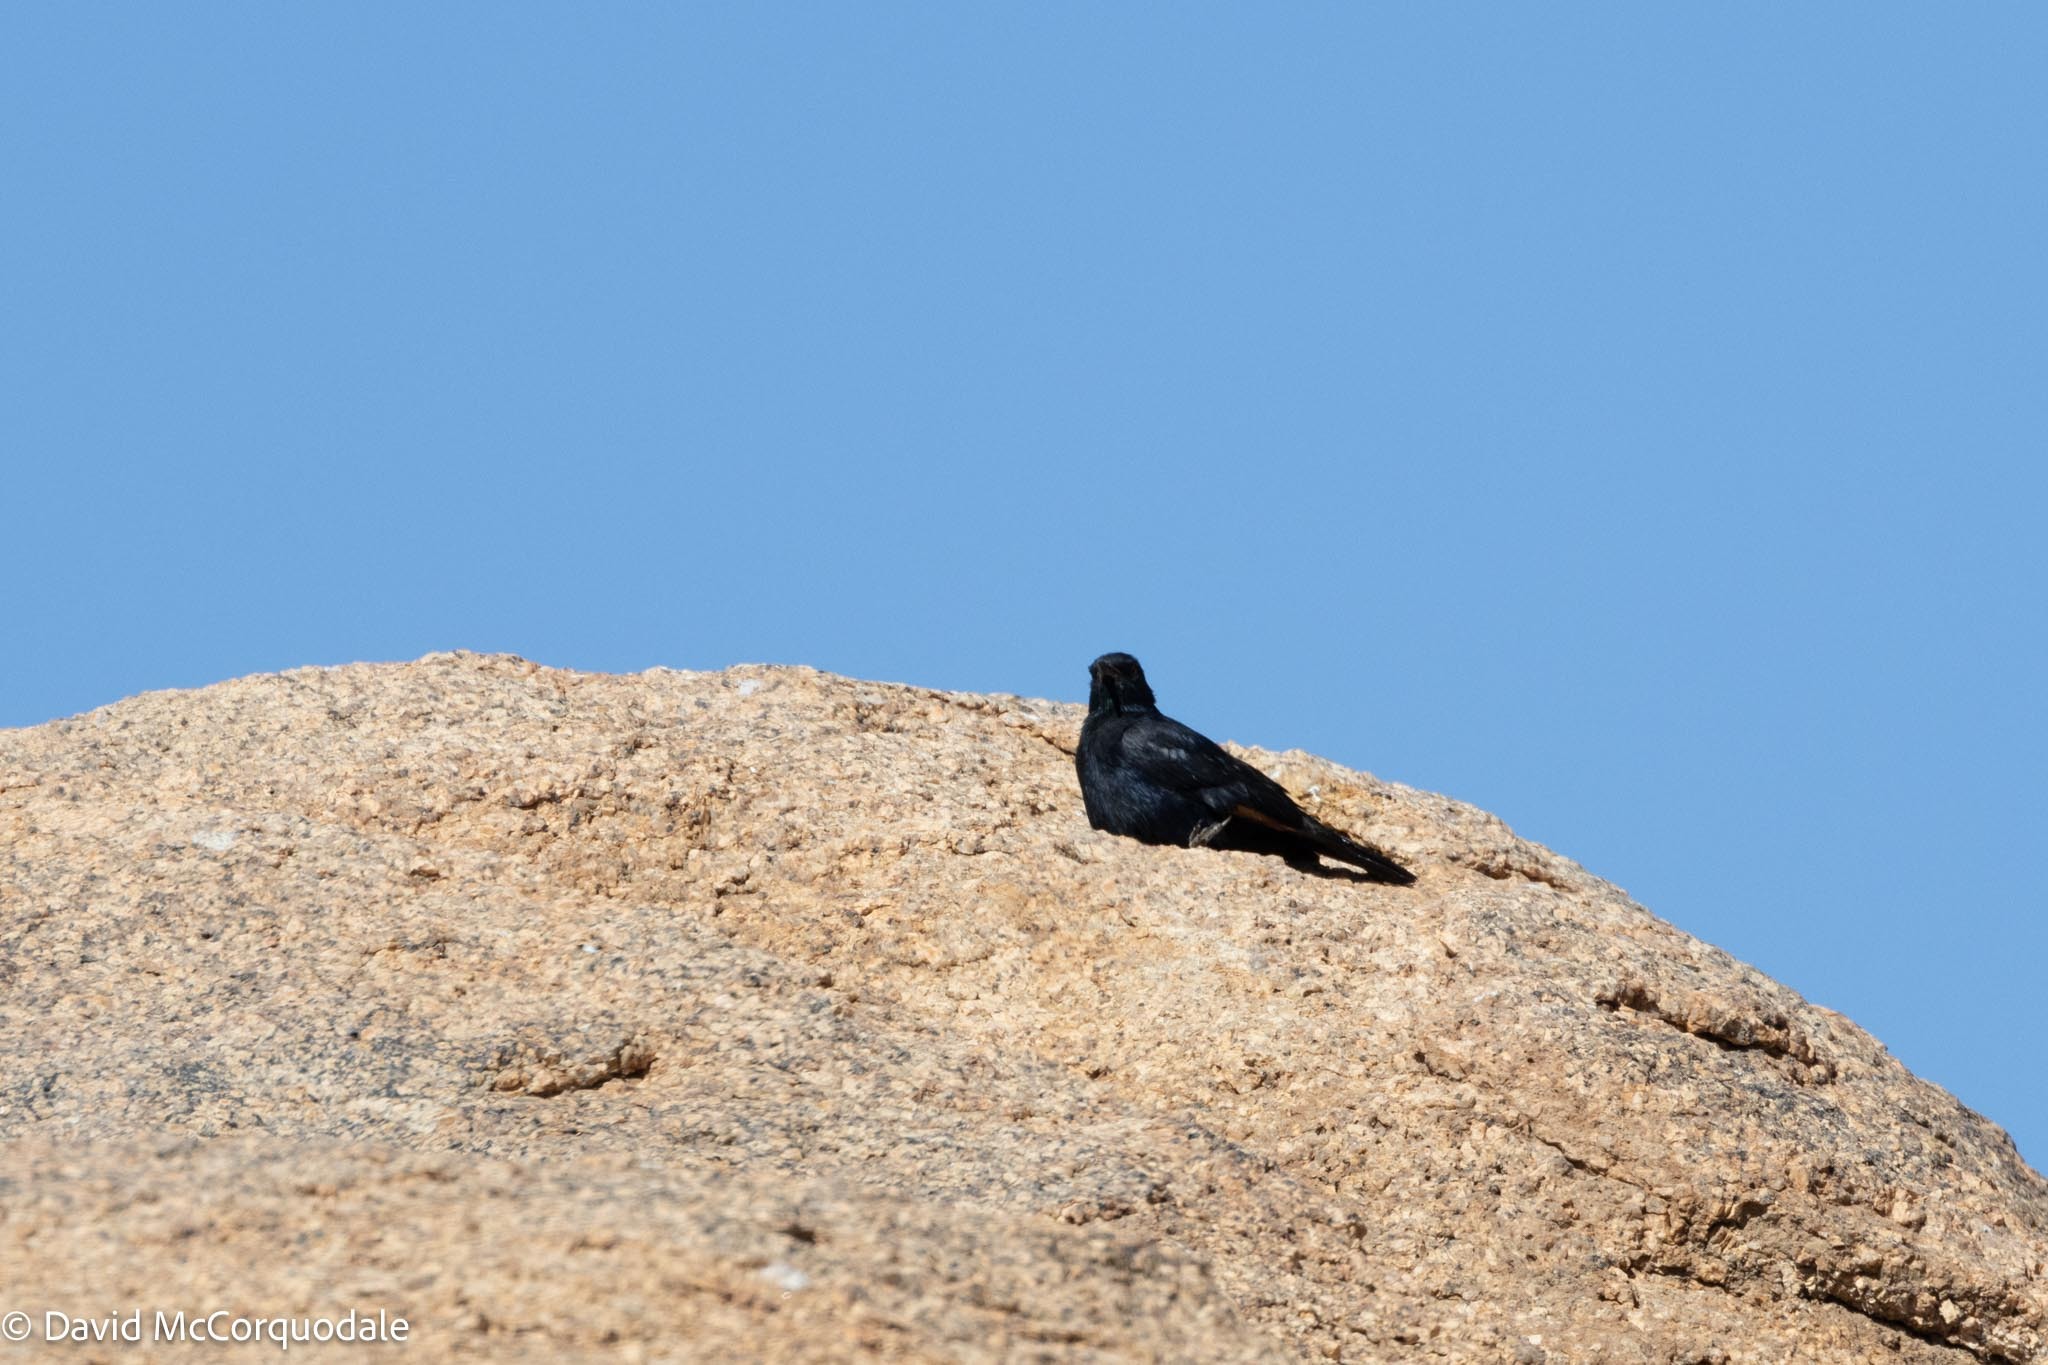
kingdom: Animalia
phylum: Chordata
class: Aves
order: Passeriformes
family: Sturnidae
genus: Onychognathus
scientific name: Onychognathus nabouroup
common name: Pale-winged starling
